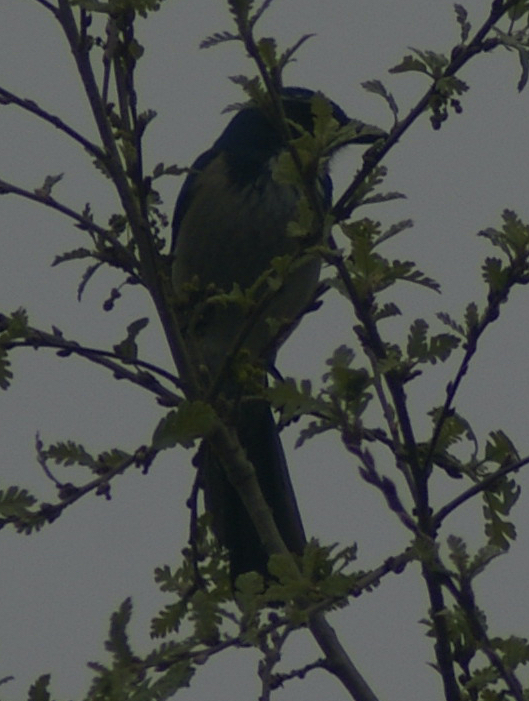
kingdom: Animalia
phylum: Chordata
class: Aves
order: Passeriformes
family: Corvidae
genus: Aphelocoma
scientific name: Aphelocoma californica
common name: California scrub-jay
